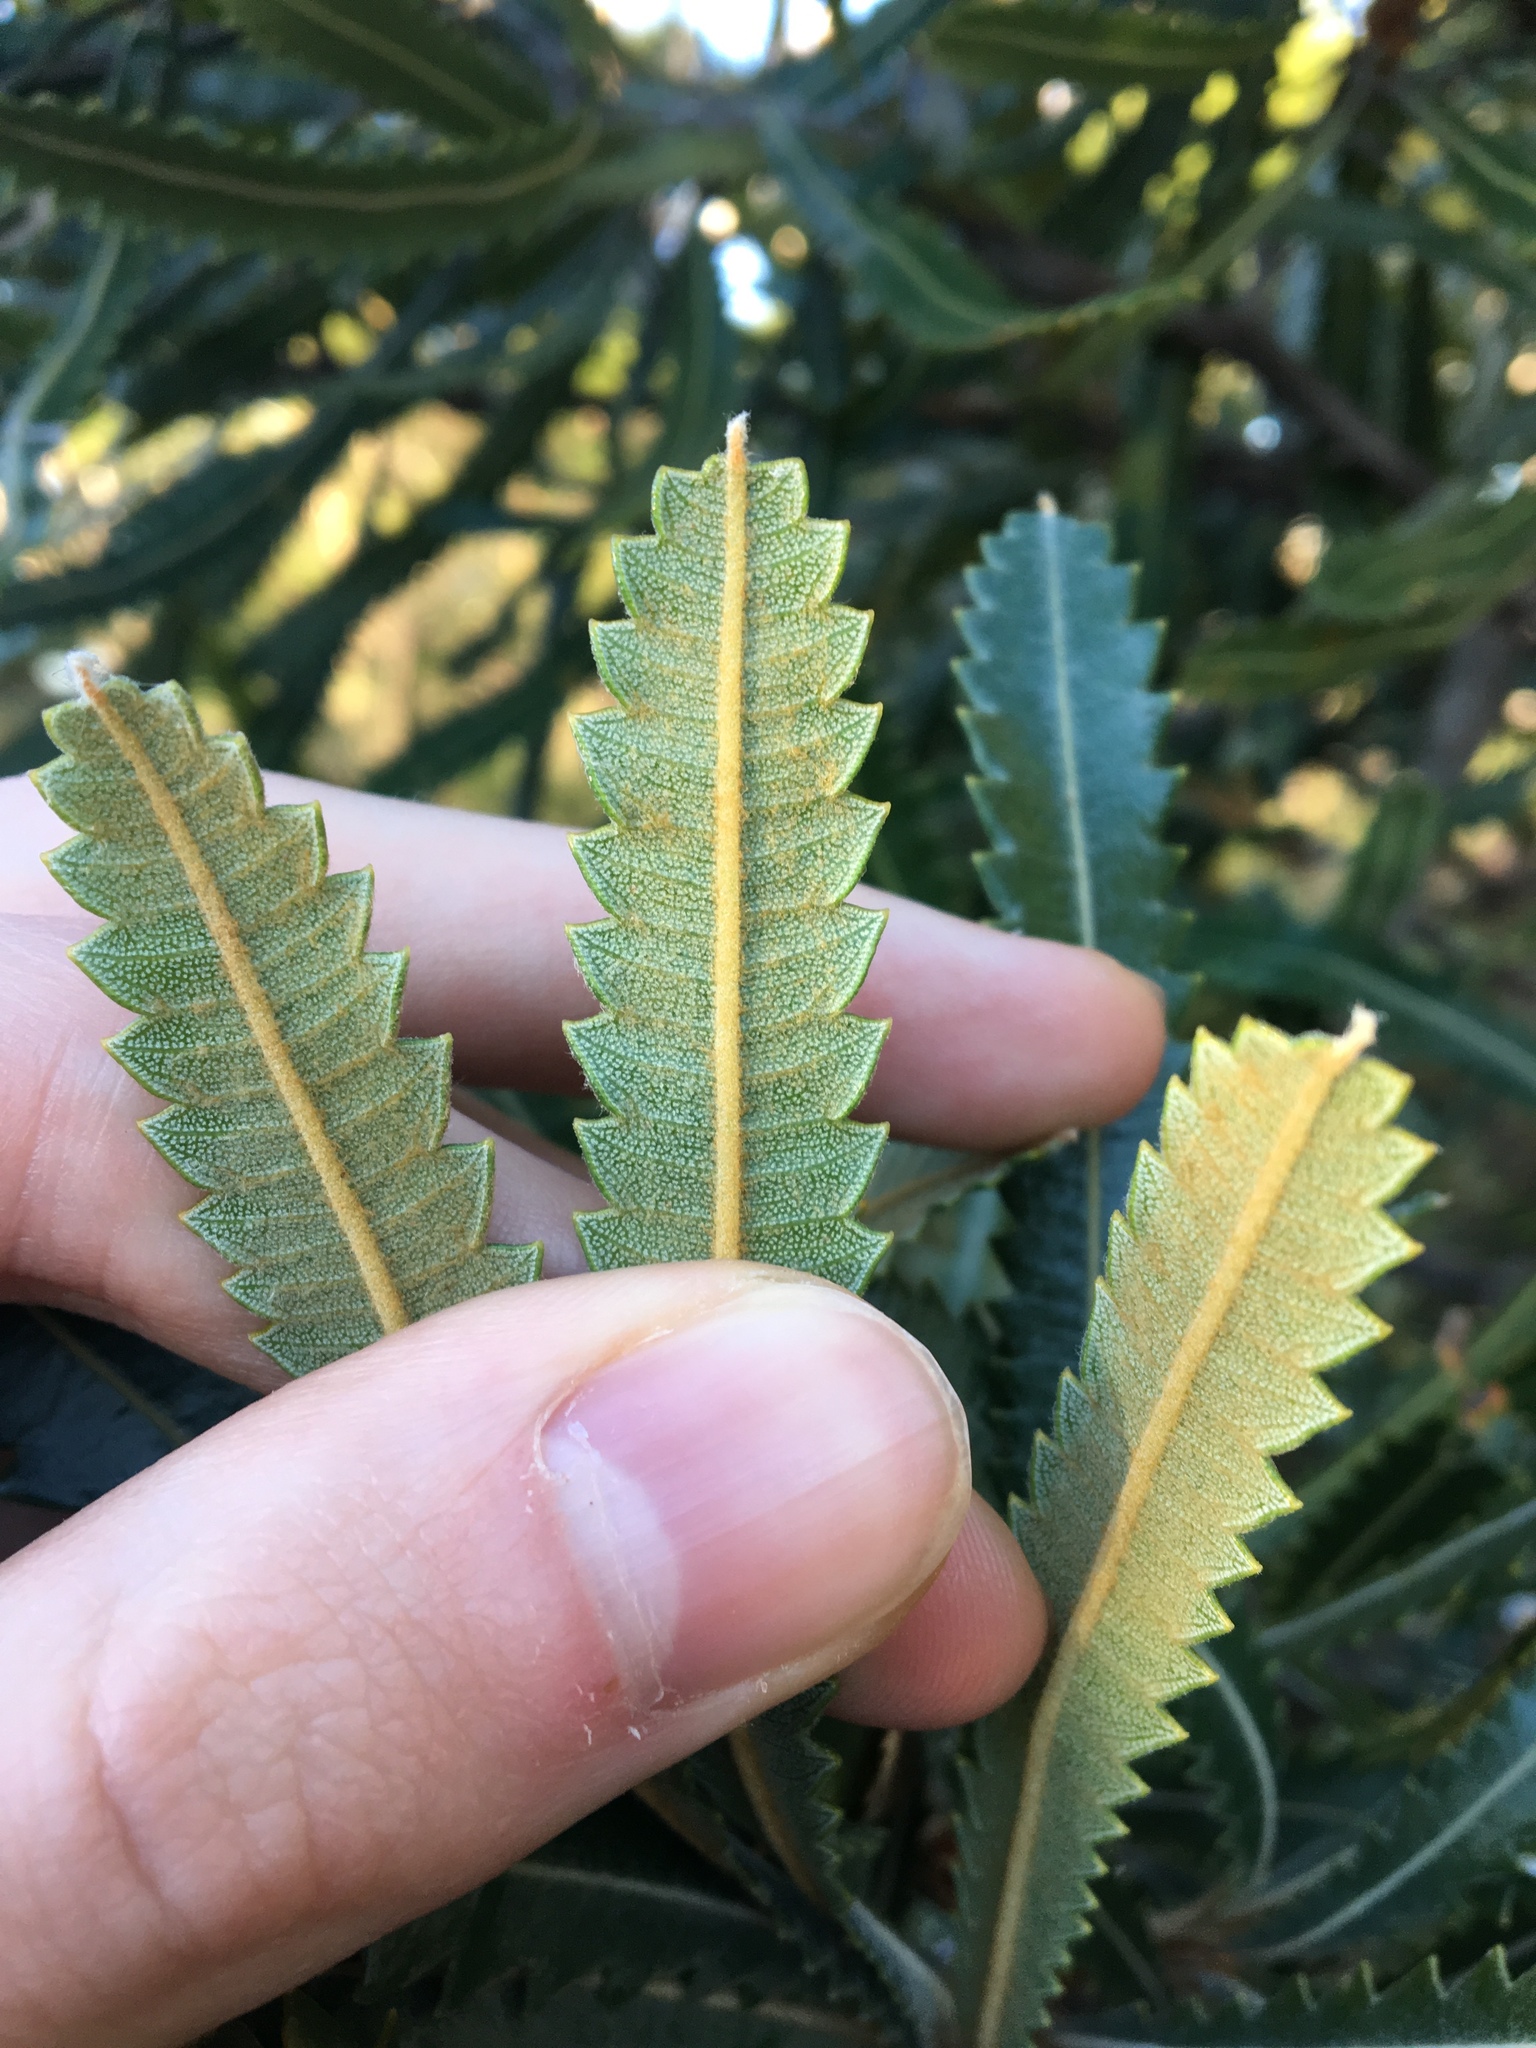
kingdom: Plantae
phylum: Tracheophyta
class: Magnoliopsida
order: Proteales
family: Proteaceae
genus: Banksia
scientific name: Banksia aemula
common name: Wallum banksia
